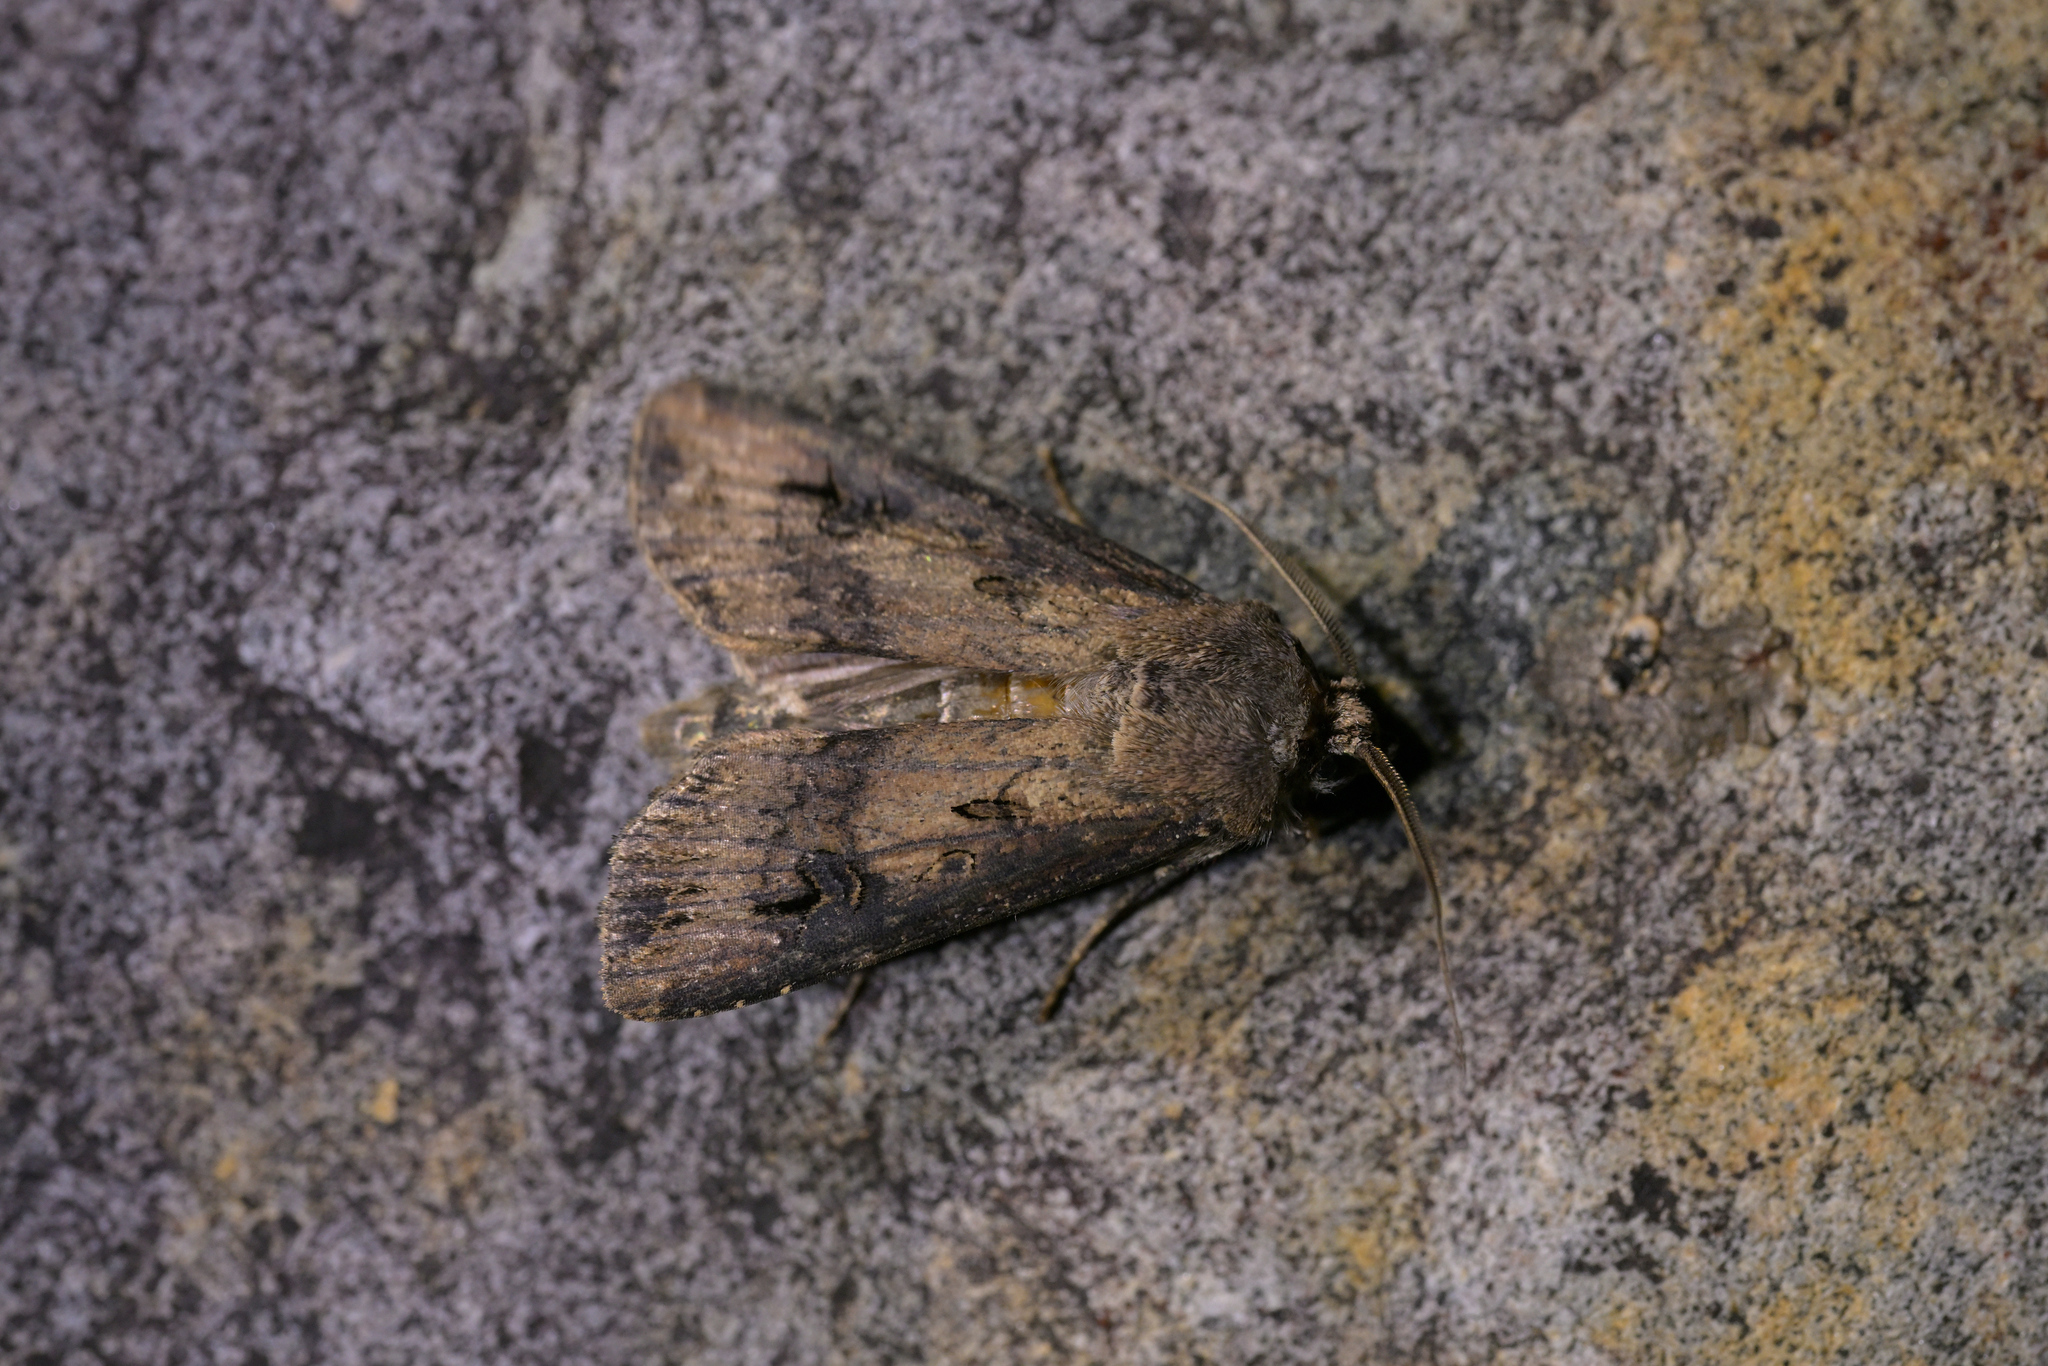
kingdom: Animalia
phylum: Arthropoda
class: Insecta
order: Lepidoptera
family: Noctuidae
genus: Agrotis
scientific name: Agrotis ipsilon
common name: Dark sword-grass
